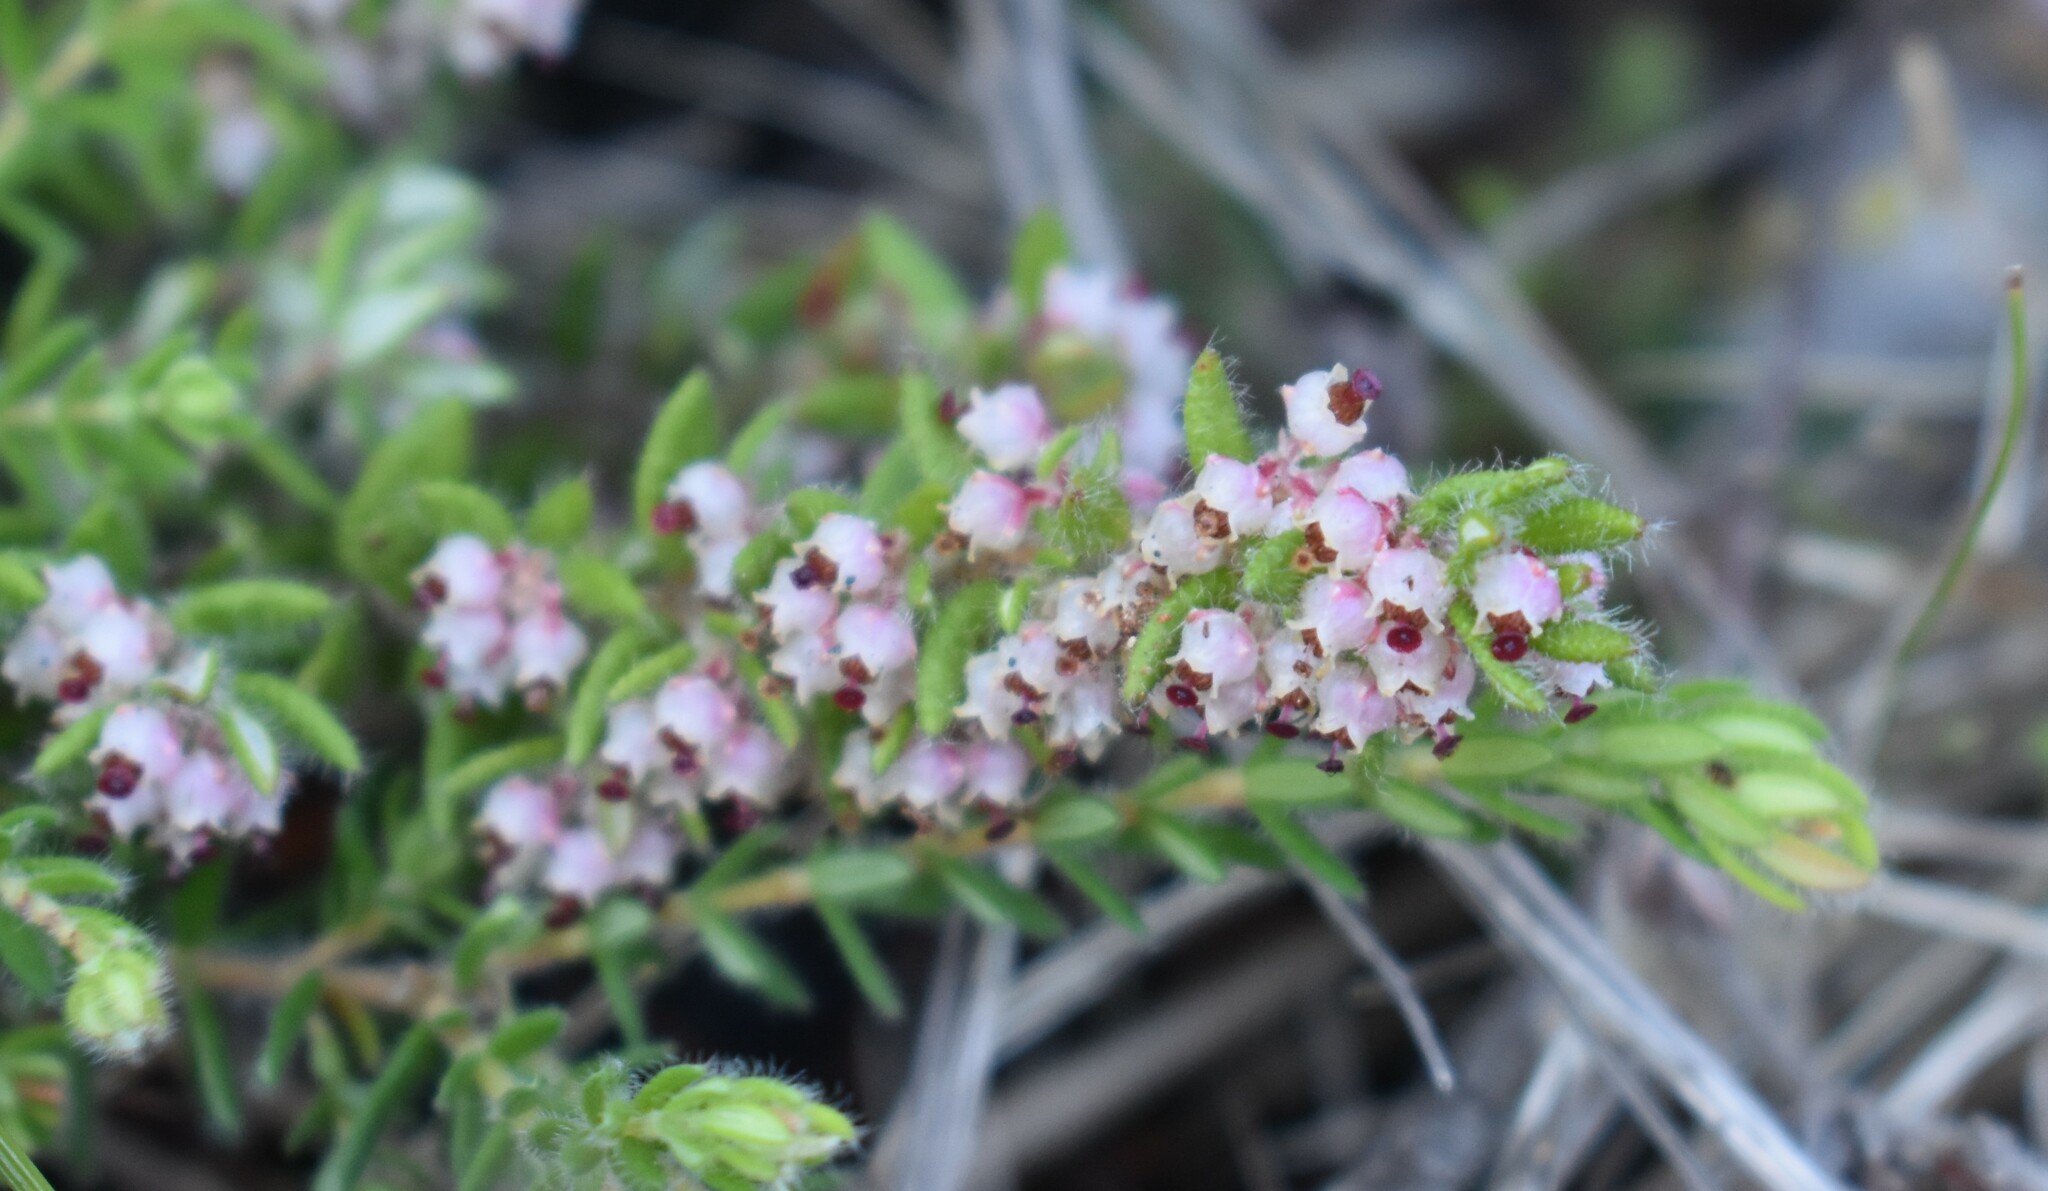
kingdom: Plantae
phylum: Tracheophyta
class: Magnoliopsida
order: Ericales
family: Ericaceae
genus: Erica
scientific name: Erica cordata
